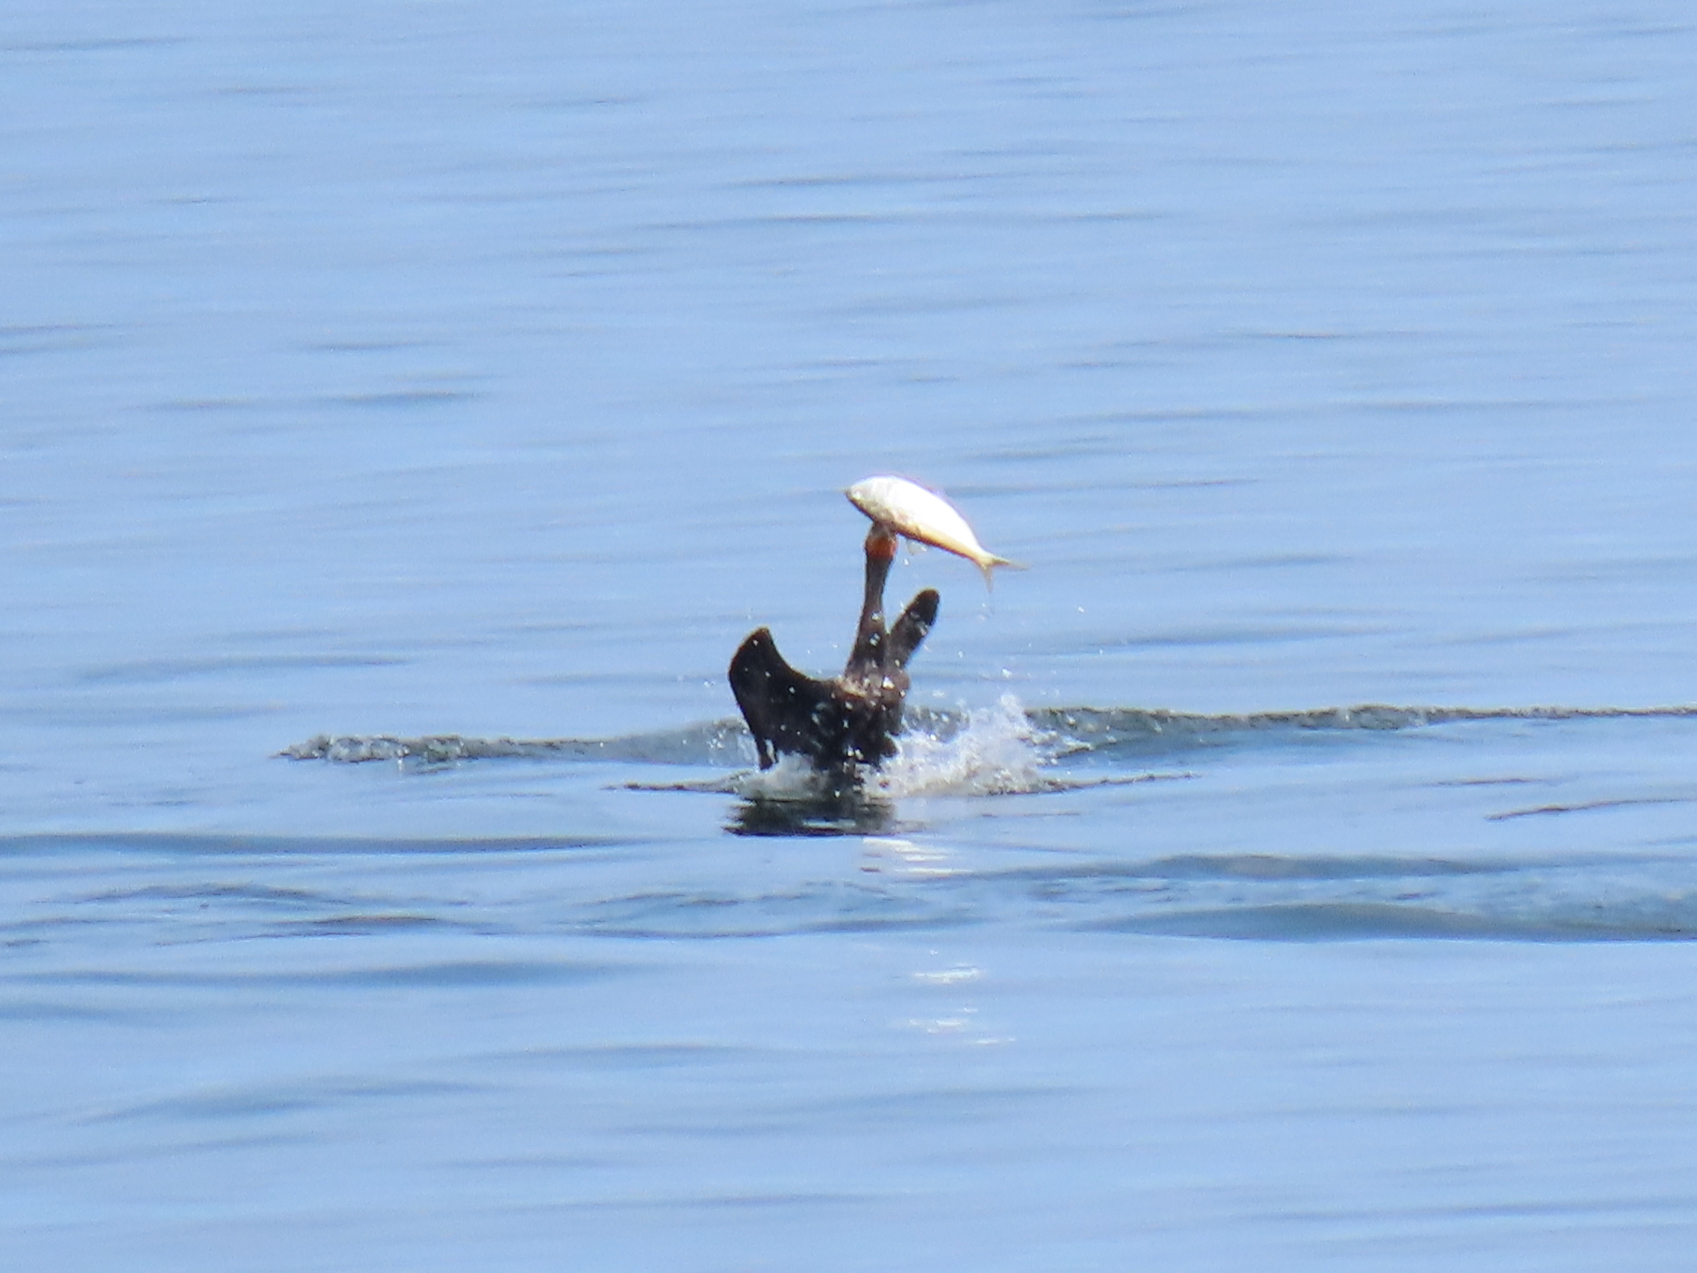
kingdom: Animalia
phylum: Chordata
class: Aves
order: Suliformes
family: Phalacrocoracidae
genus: Phalacrocorax
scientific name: Phalacrocorax auritus
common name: Double-crested cormorant
